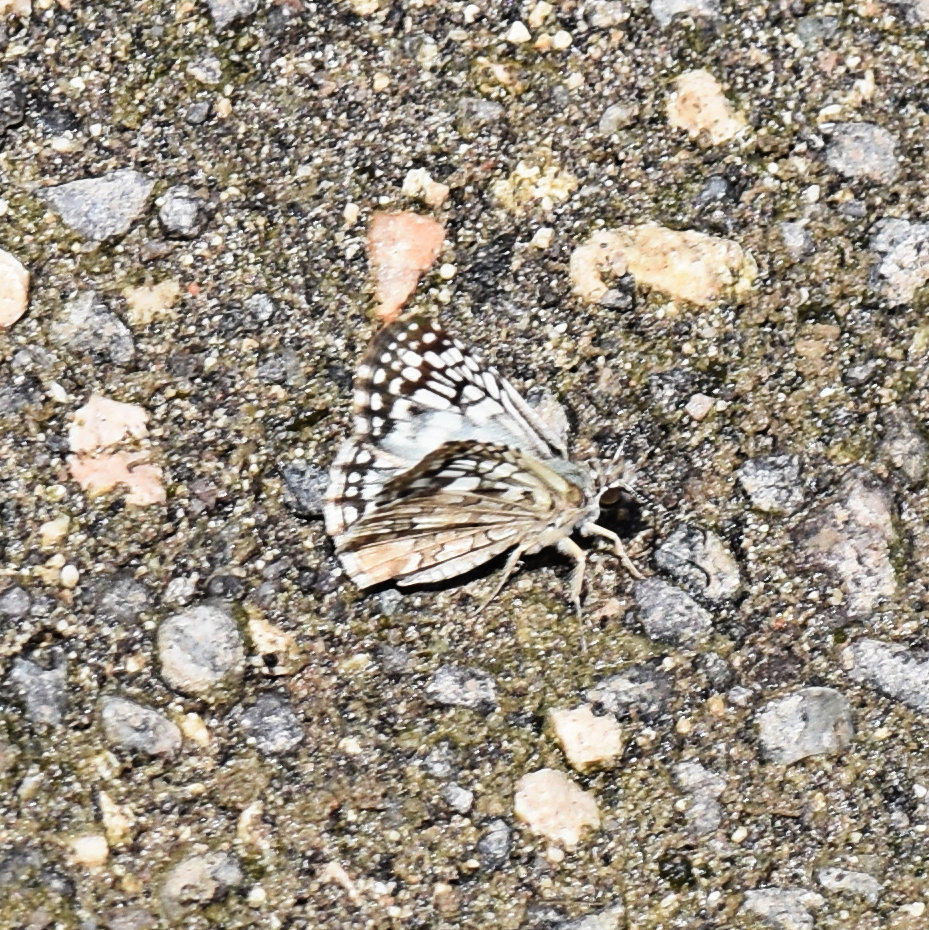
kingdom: Animalia
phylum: Arthropoda
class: Insecta
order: Lepidoptera
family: Hesperiidae
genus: Pyrgus
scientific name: Pyrgus oileus
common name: Tropical checkered-skipper
